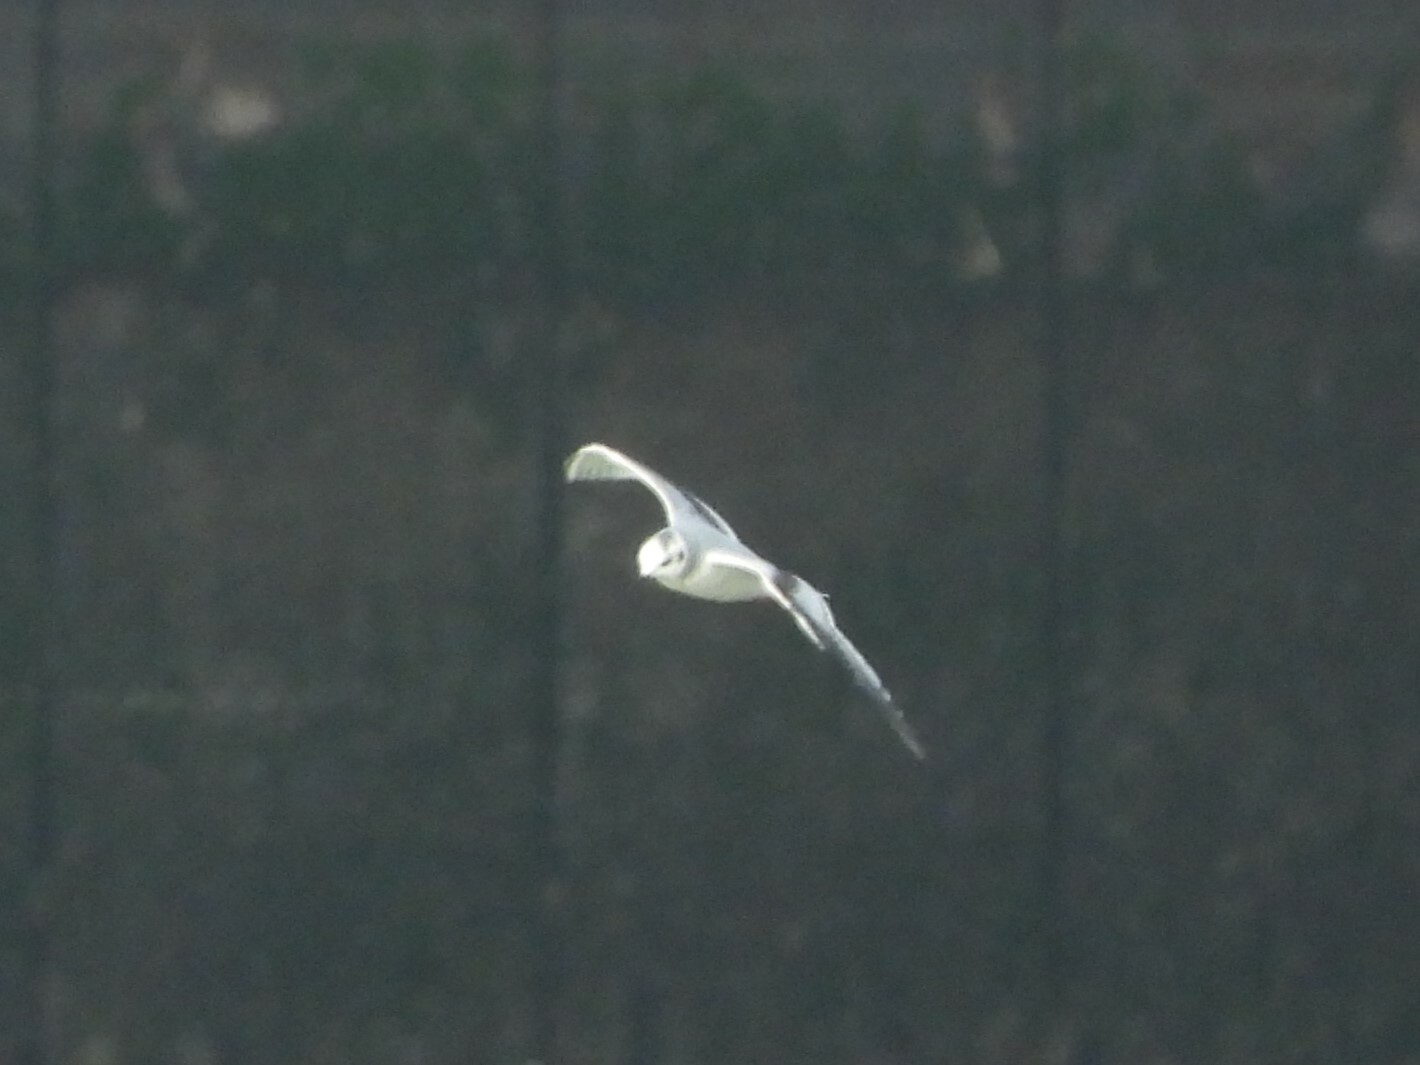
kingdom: Animalia
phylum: Chordata
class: Aves
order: Charadriiformes
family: Laridae
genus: Hydrocoloeus
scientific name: Hydrocoloeus minutus
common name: Little gull
